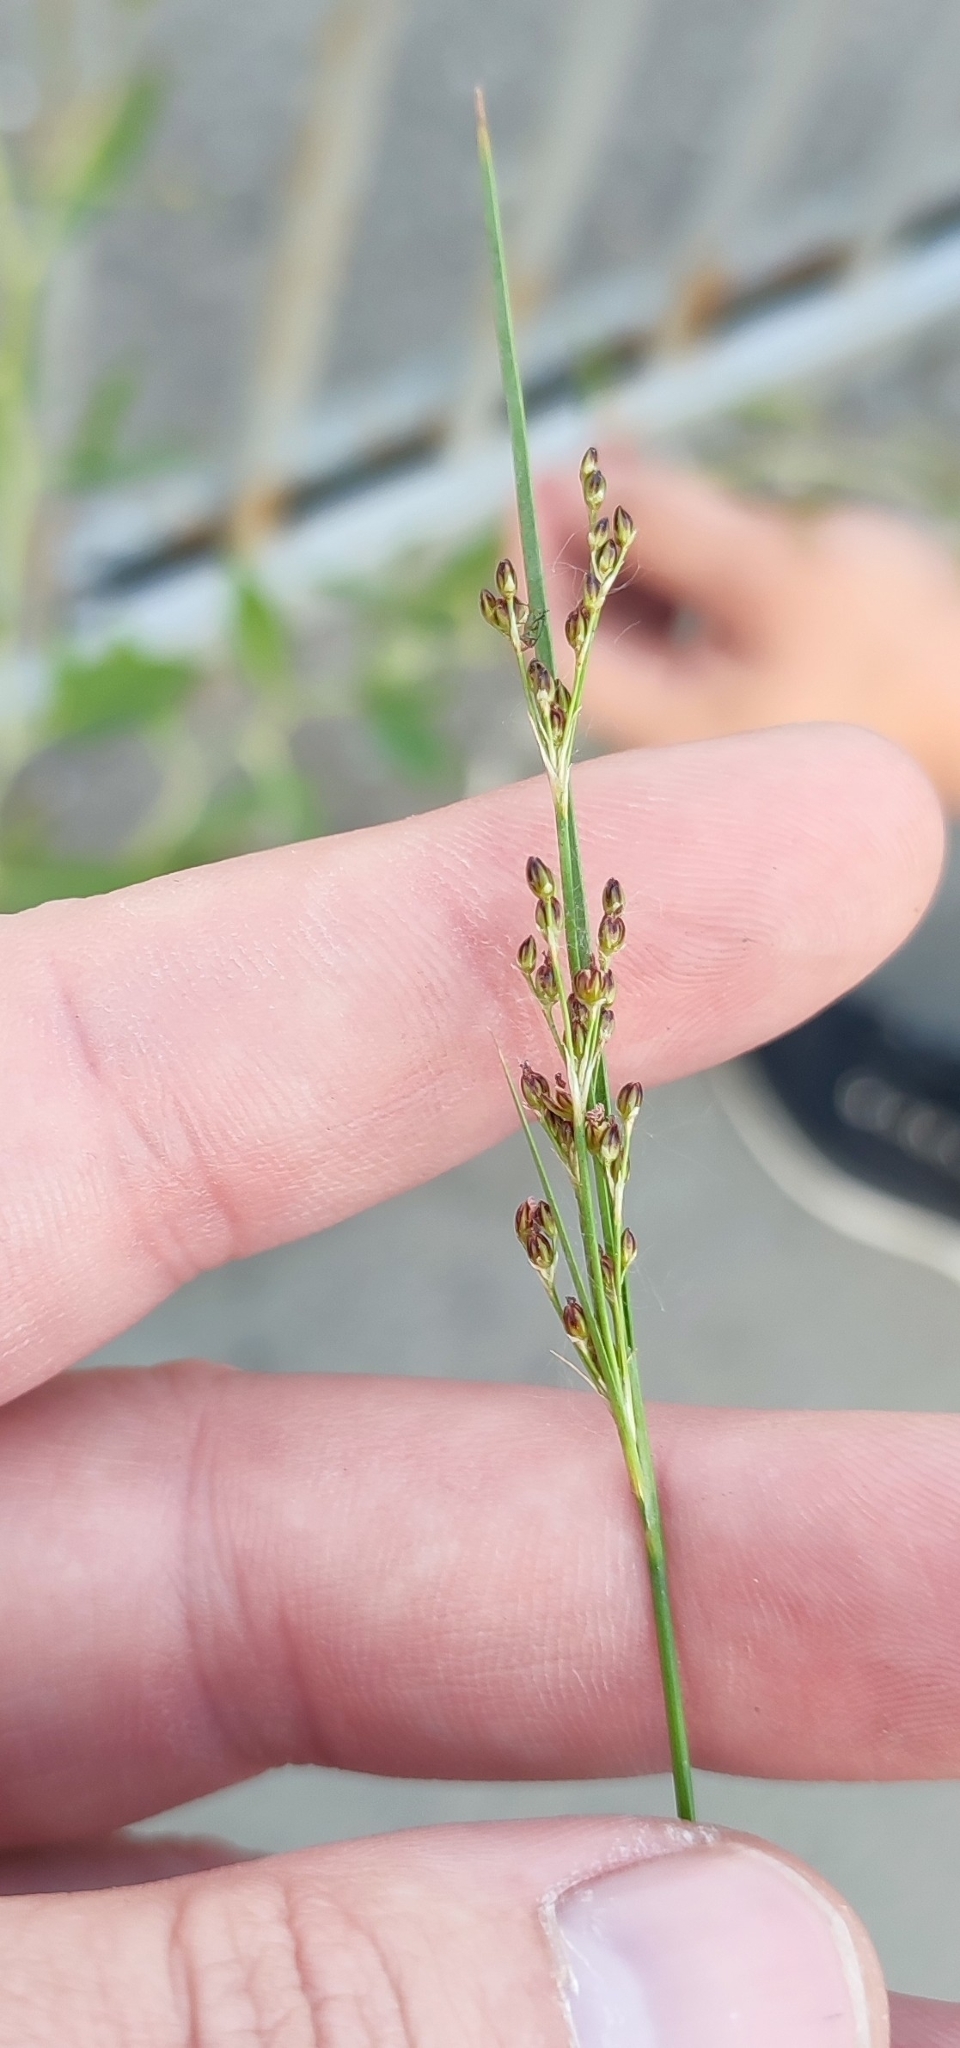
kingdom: Plantae
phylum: Tracheophyta
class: Liliopsida
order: Poales
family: Juncaceae
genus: Juncus
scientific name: Juncus gerardi
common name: Saltmarsh rush
